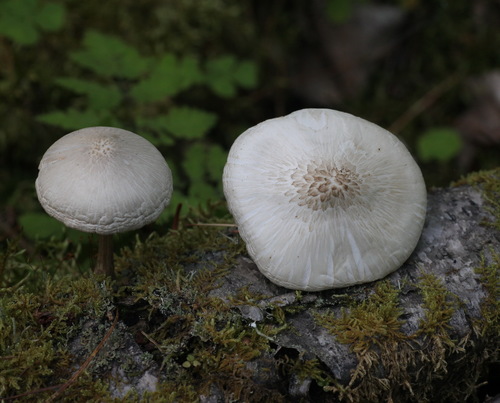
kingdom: Fungi
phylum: Basidiomycota
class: Agaricomycetes
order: Agaricales
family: Pluteaceae
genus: Pluteus
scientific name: Pluteus petasatus
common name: Scaly shield
